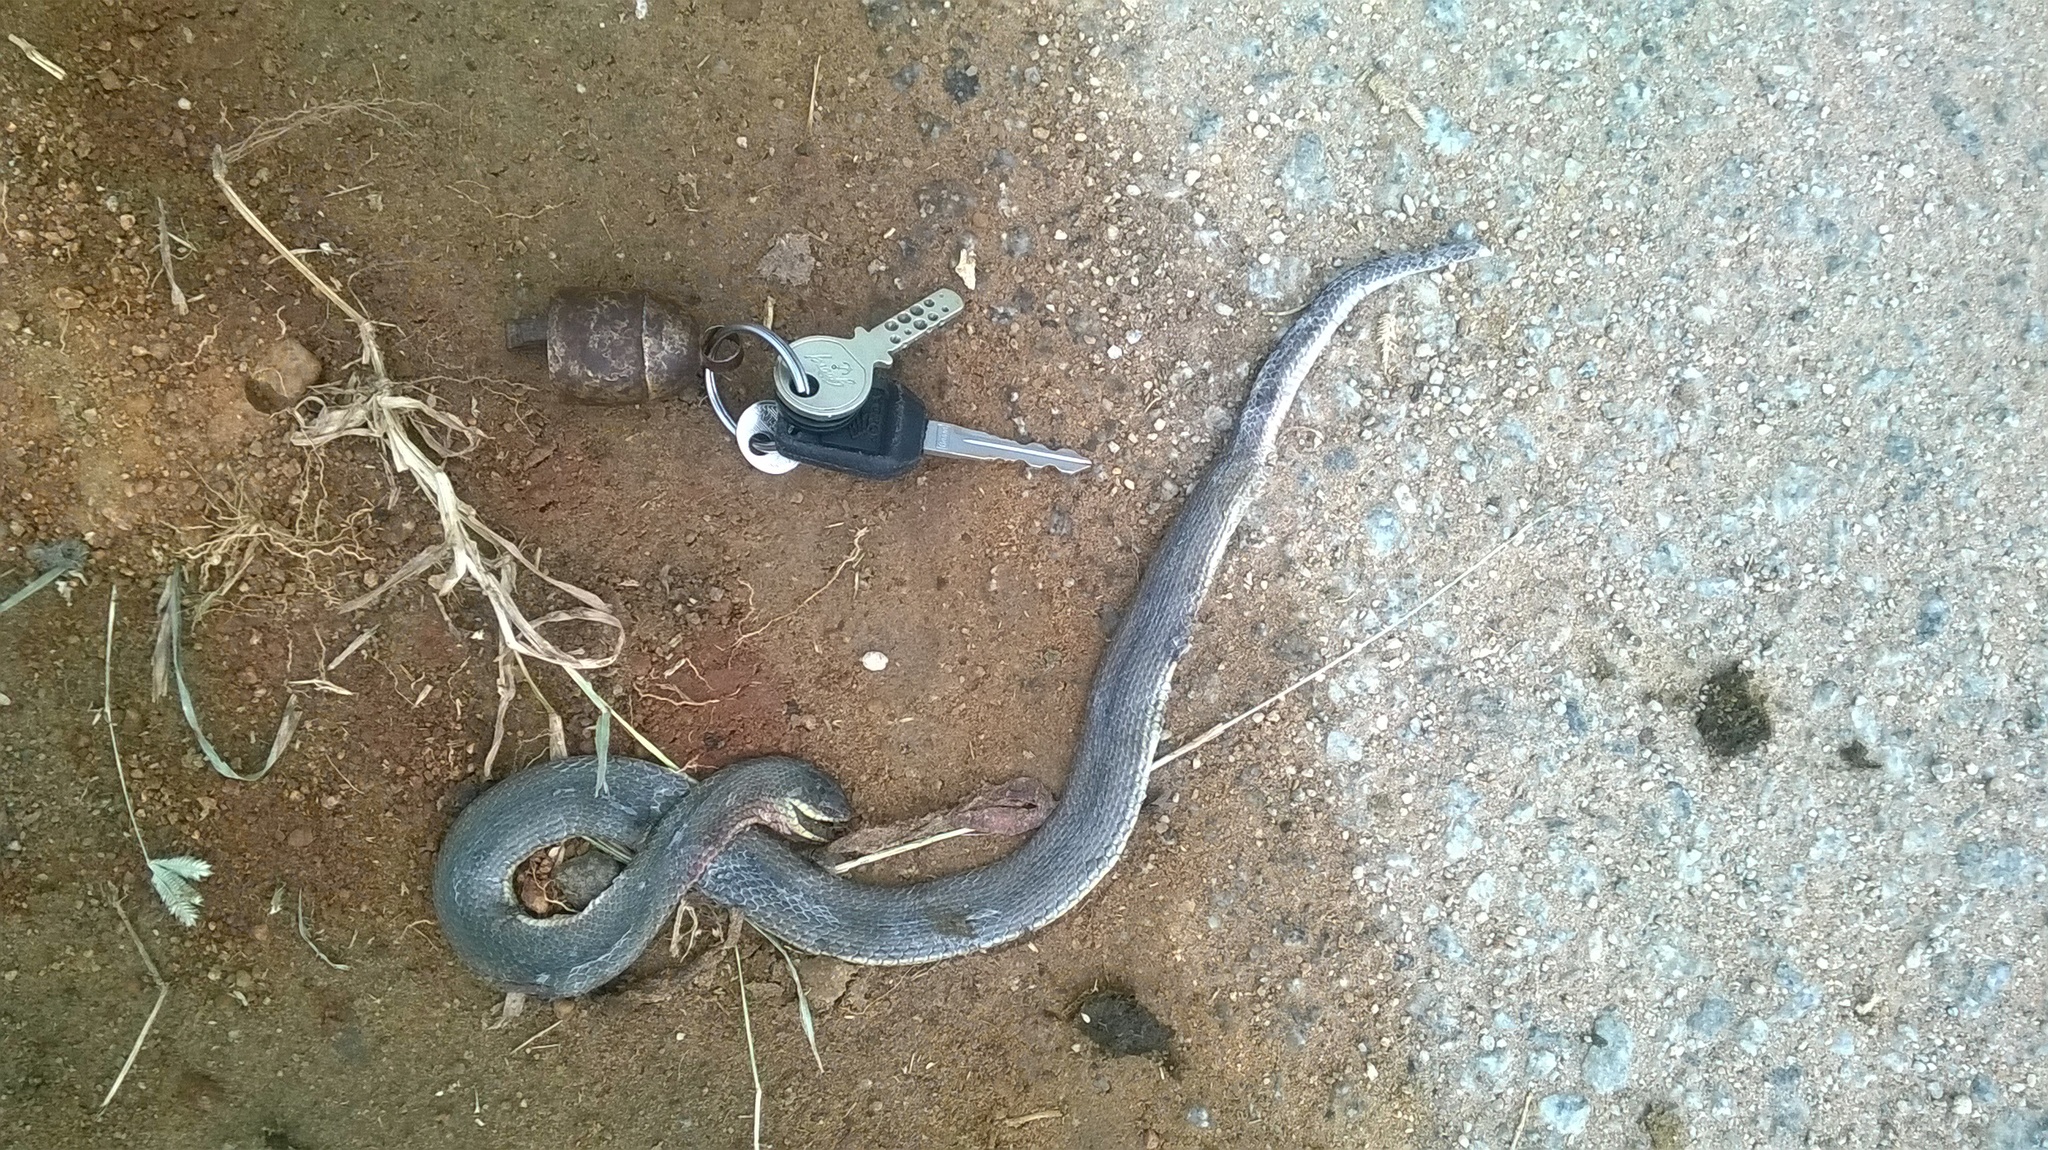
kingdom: Animalia
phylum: Chordata
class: Squamata
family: Colubridae
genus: Atretium
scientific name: Atretium schistosum
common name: Olive keelback wart snake
